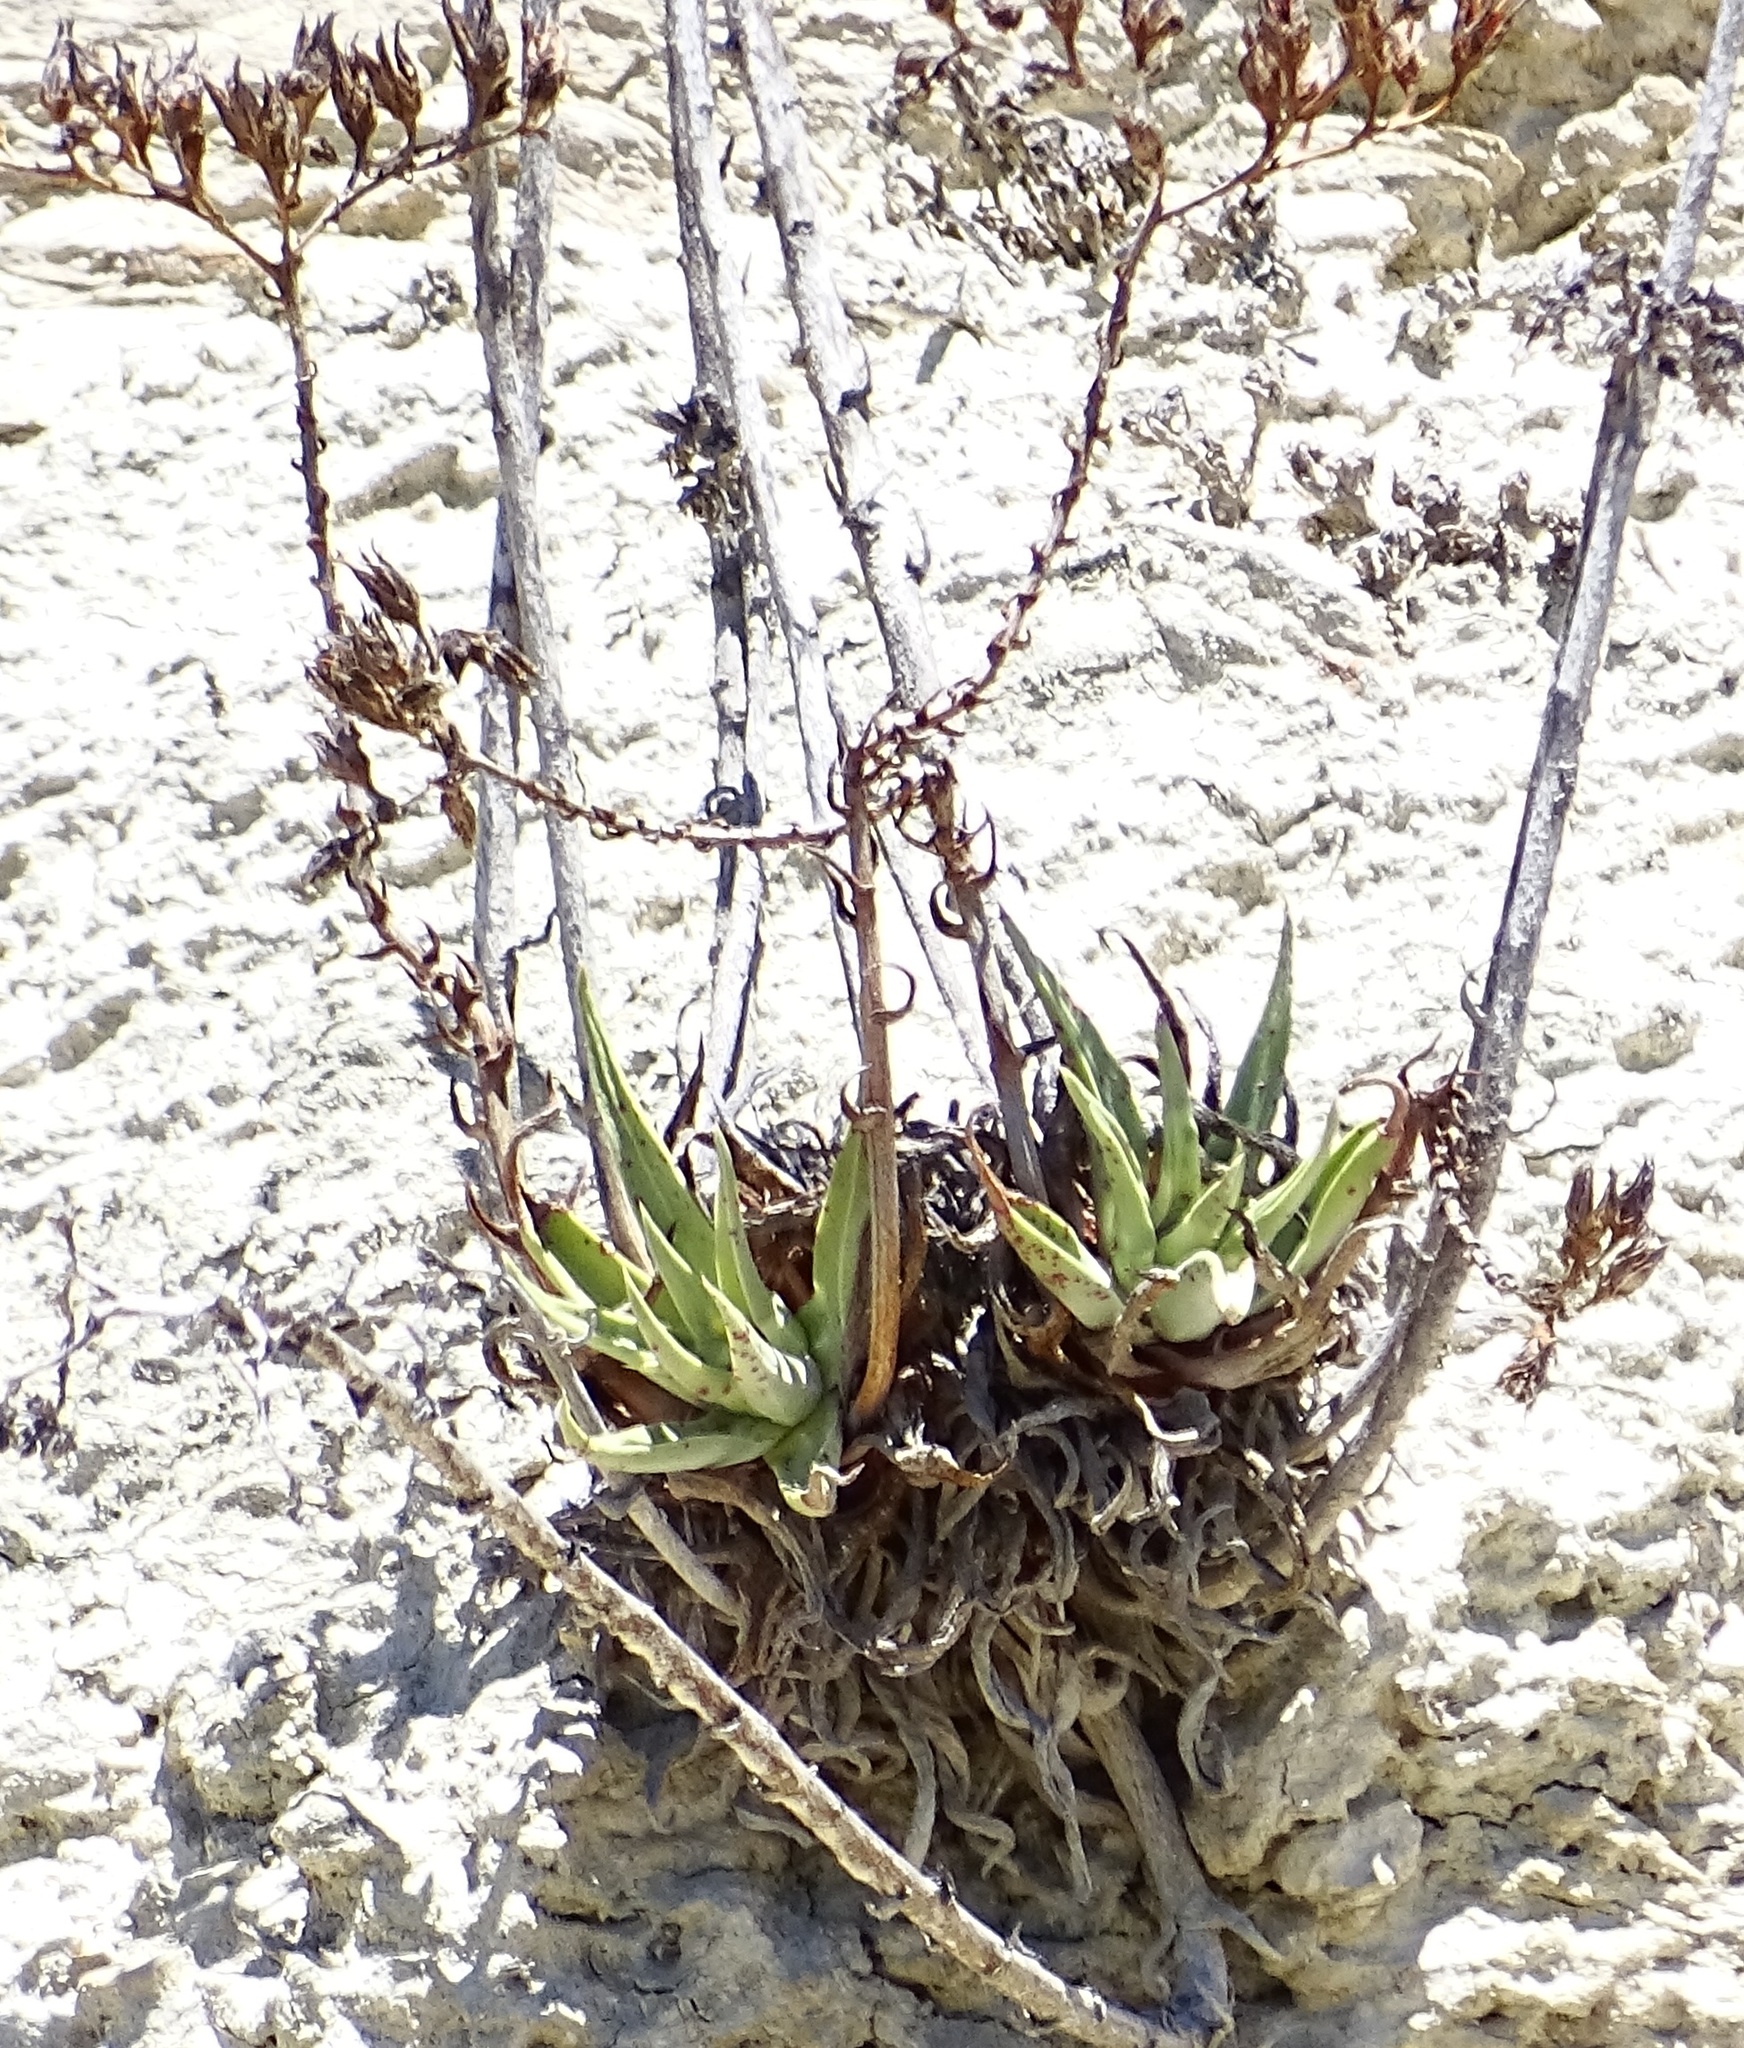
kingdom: Plantae
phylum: Tracheophyta
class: Magnoliopsida
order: Saxifragales
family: Crassulaceae
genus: Dudleya
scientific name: Dudleya lanceolata
